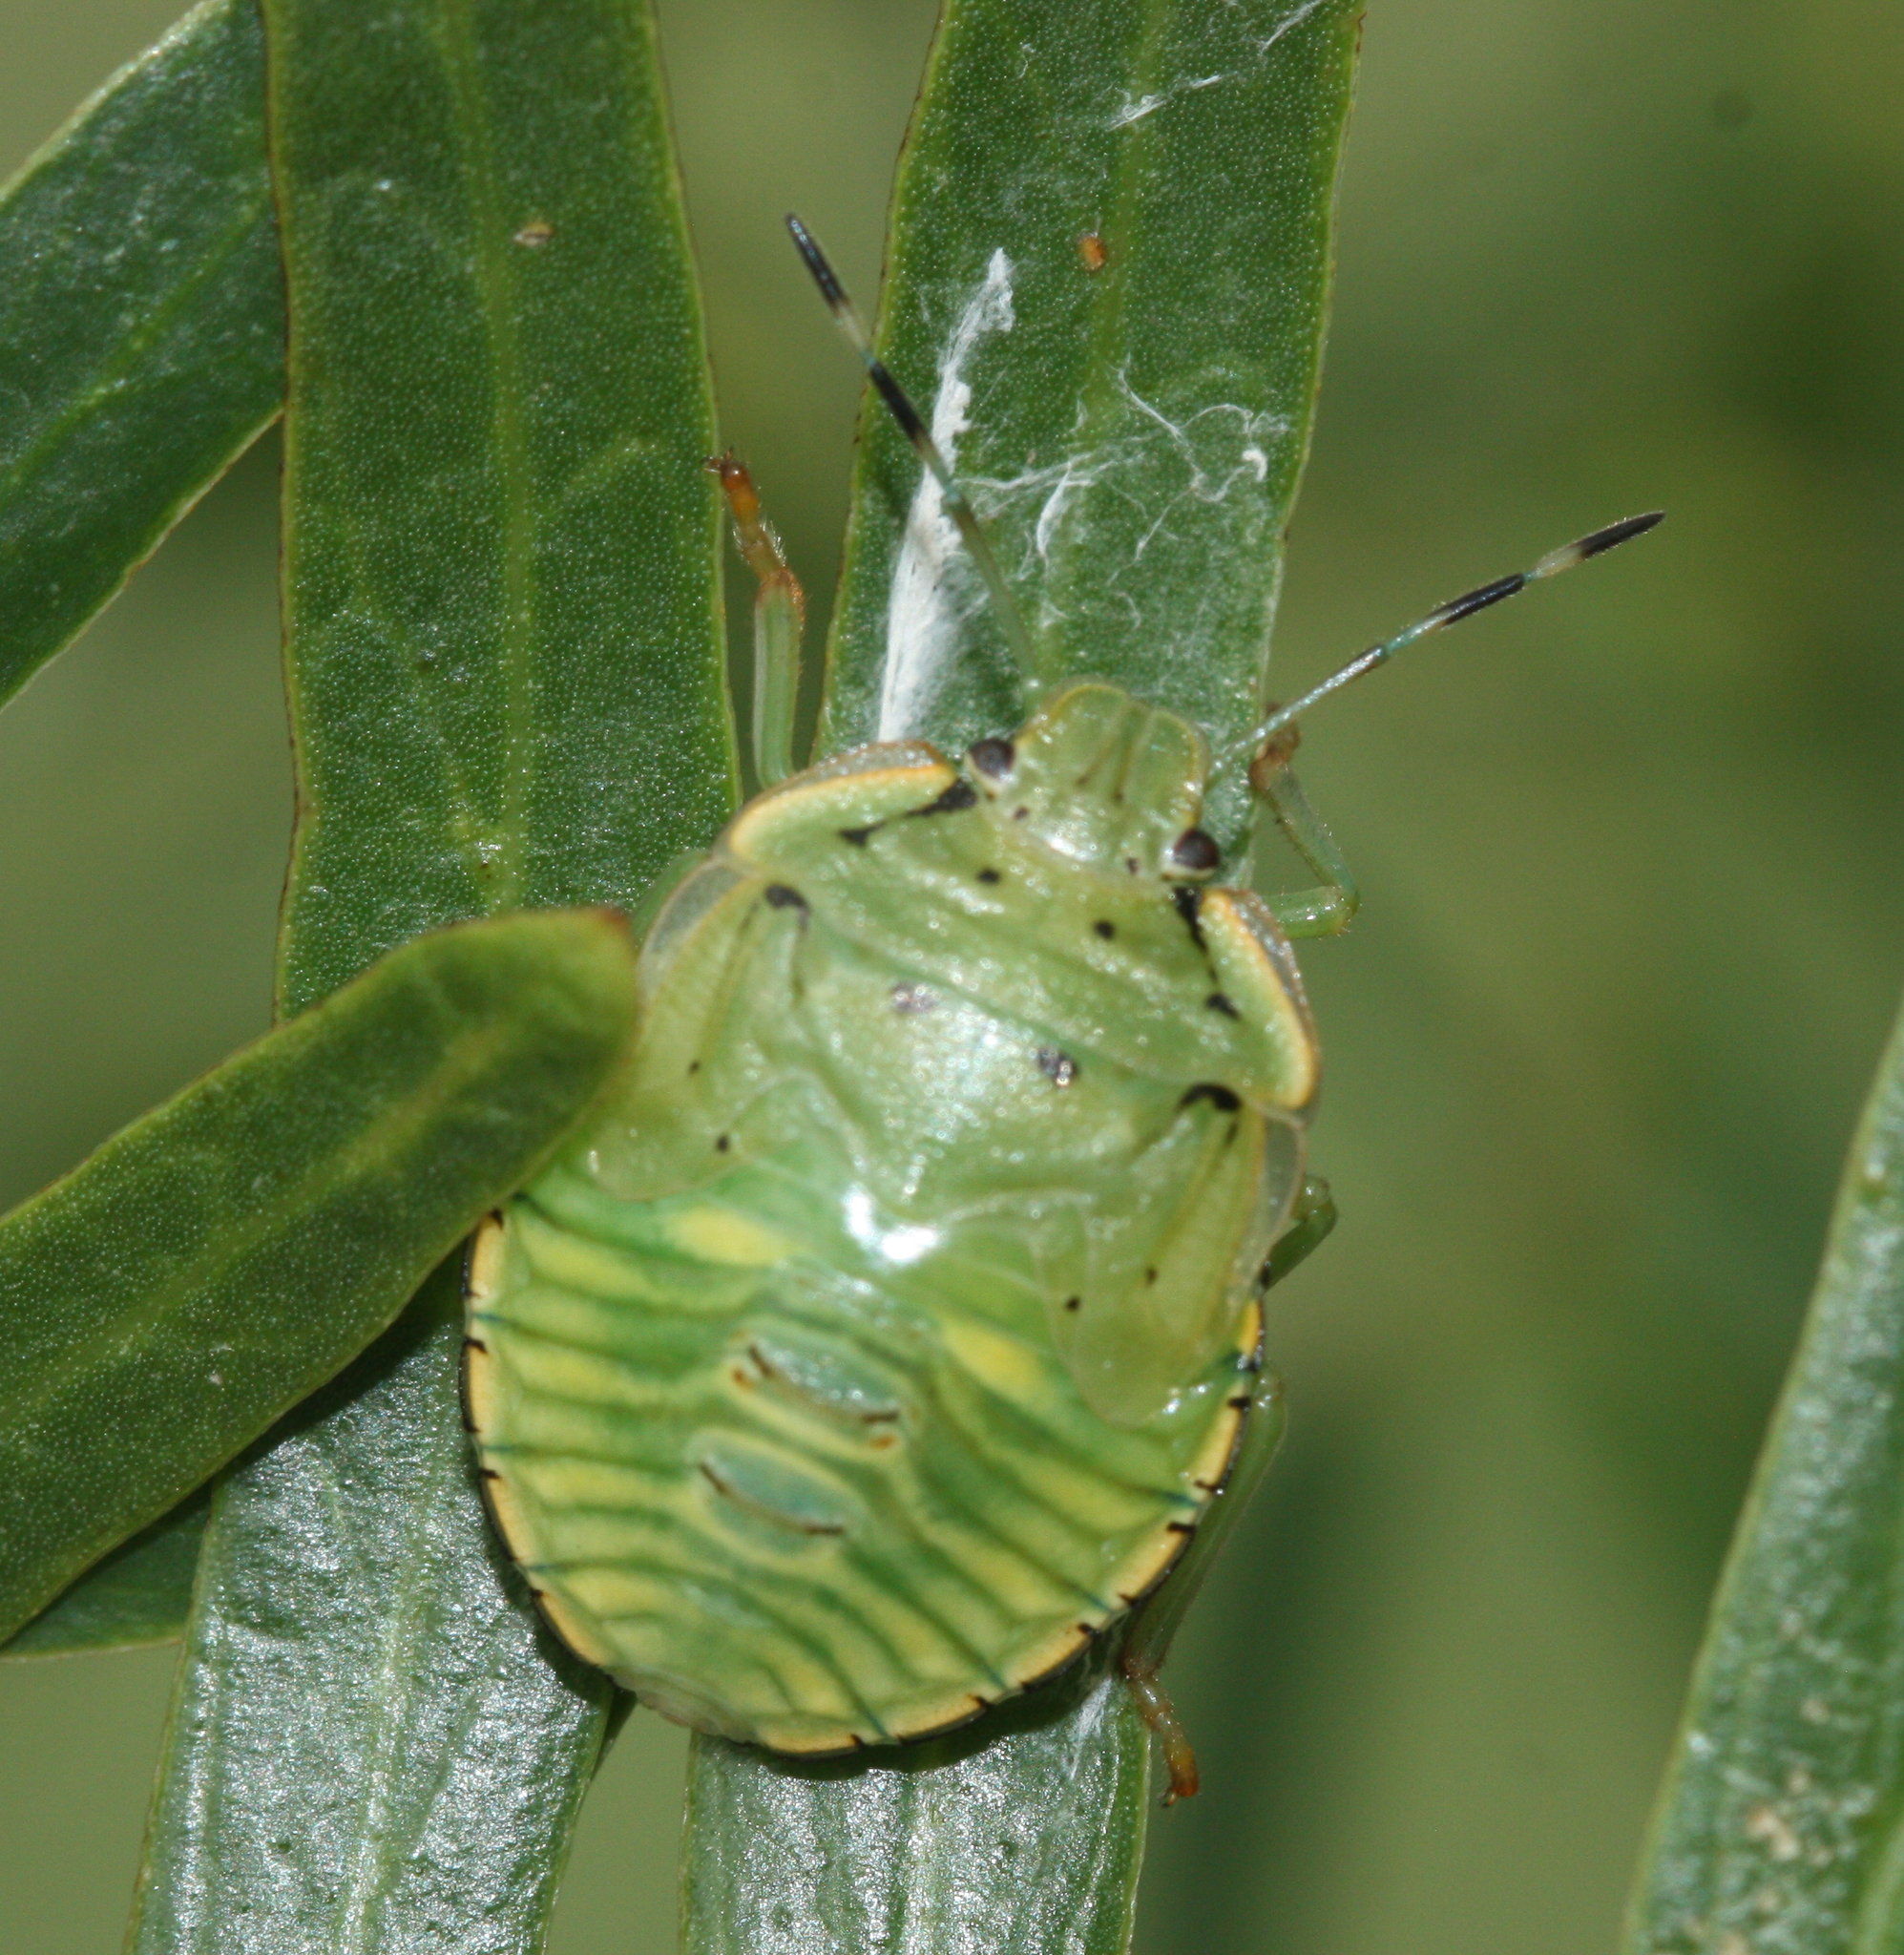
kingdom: Animalia
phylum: Arthropoda
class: Insecta
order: Hemiptera
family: Pentatomidae
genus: Chinavia
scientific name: Chinavia hilaris
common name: Green stink bug
